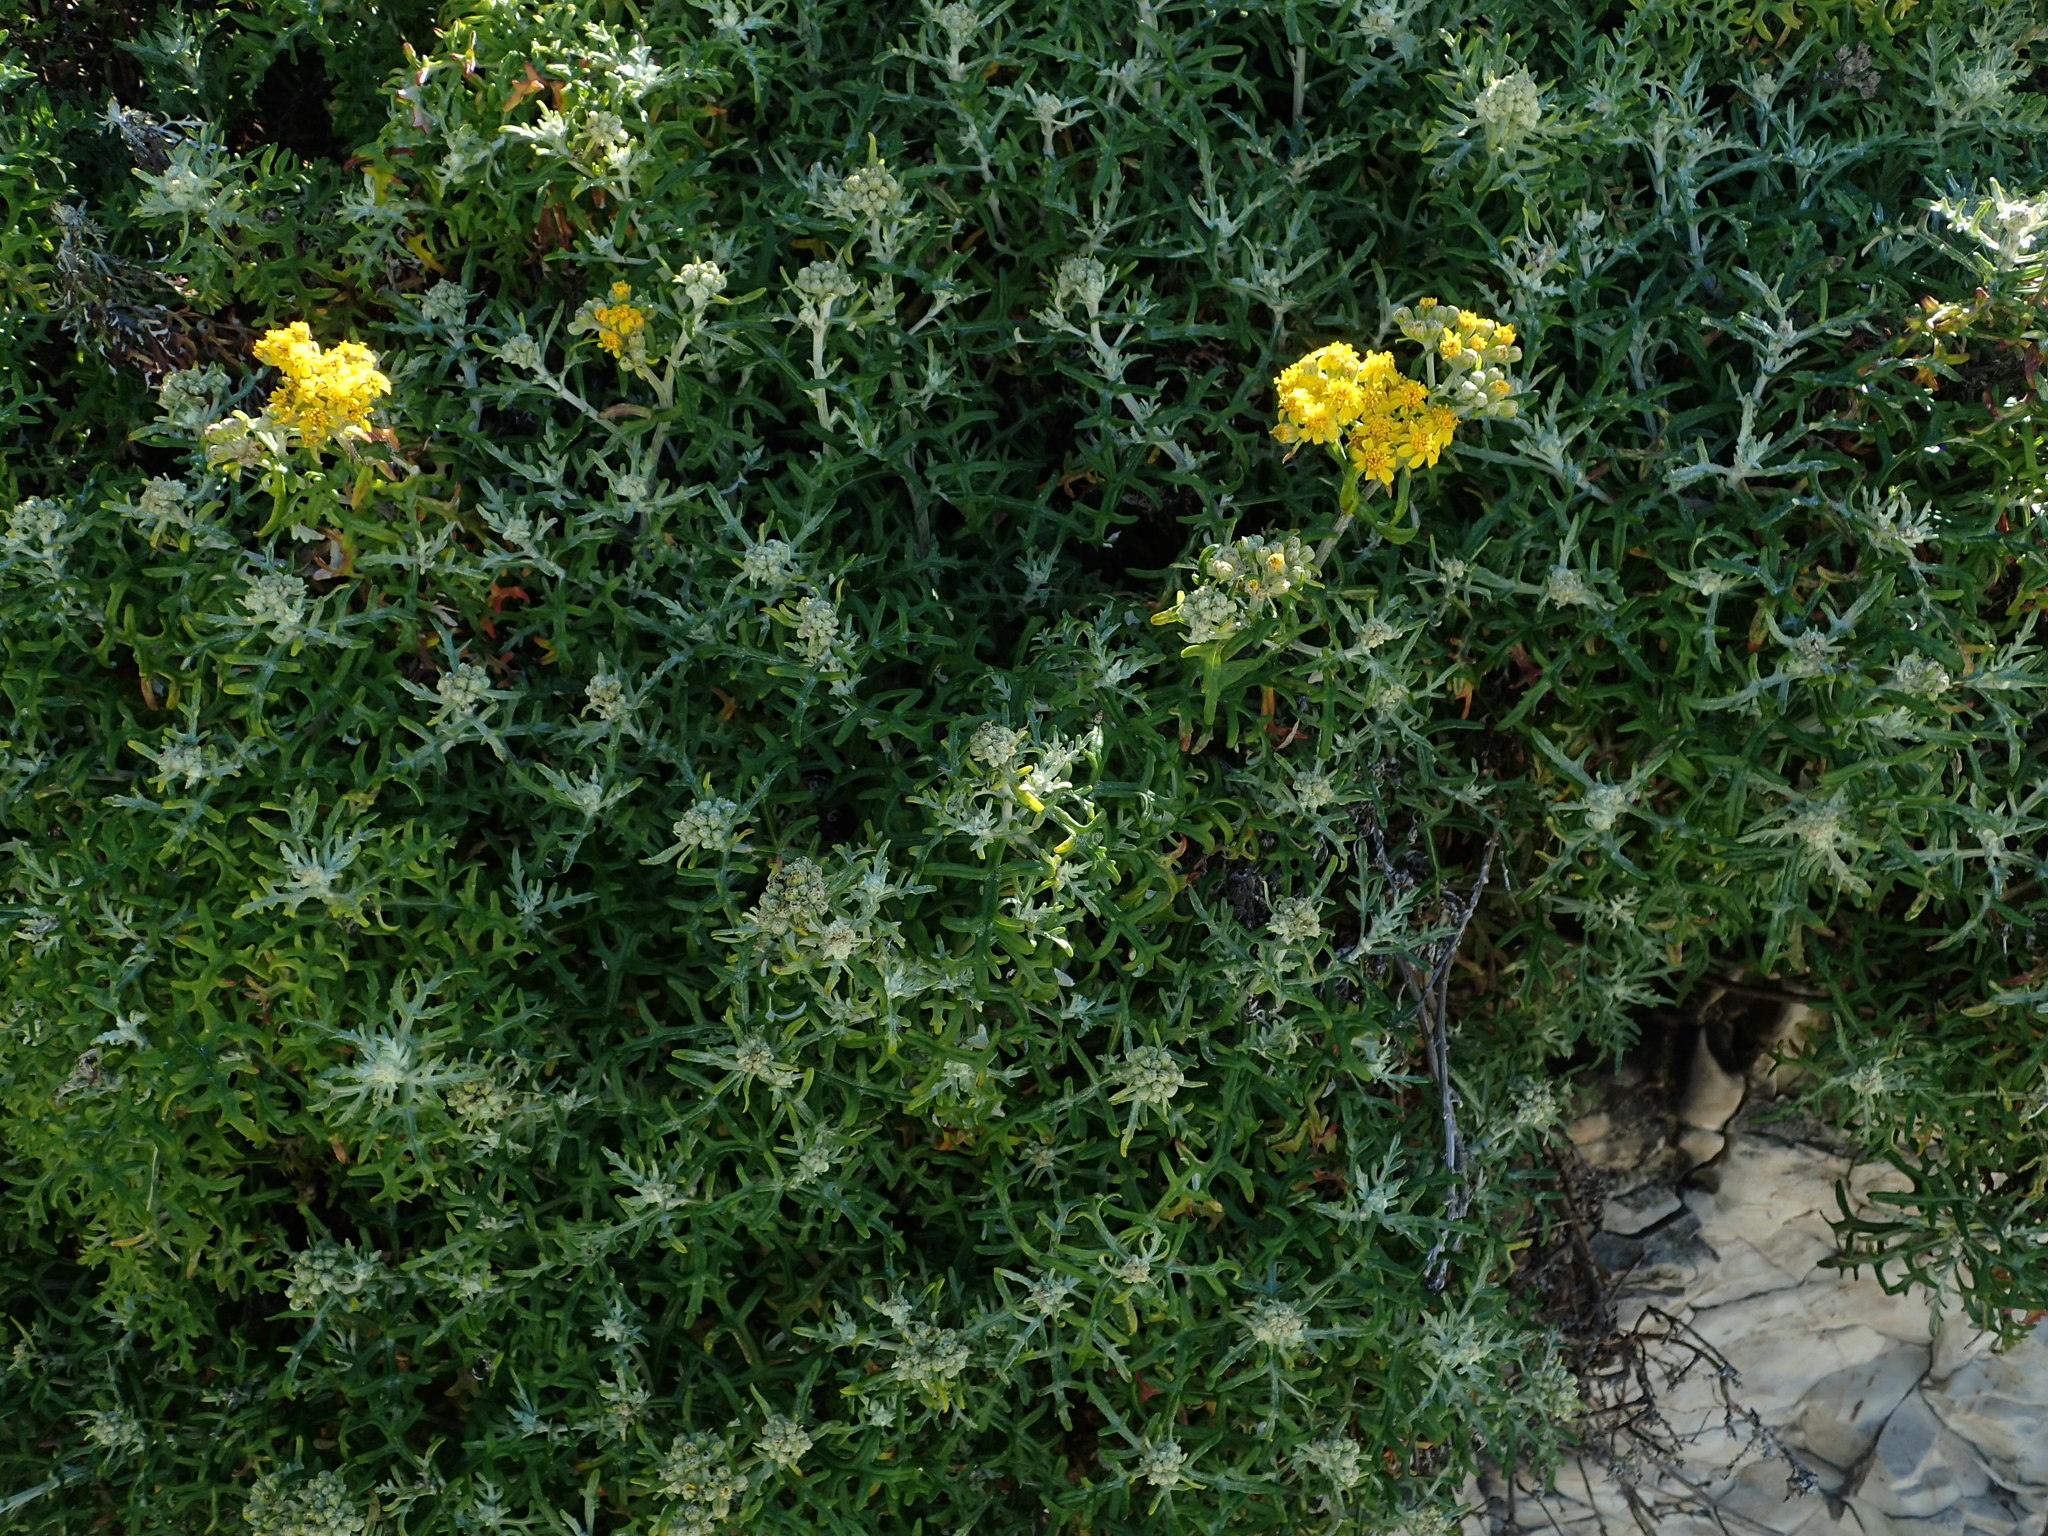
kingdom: Plantae
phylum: Tracheophyta
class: Magnoliopsida
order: Asterales
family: Asteraceae
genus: Eriophyllum
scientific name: Eriophyllum staechadifolium
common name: Lizardtail
